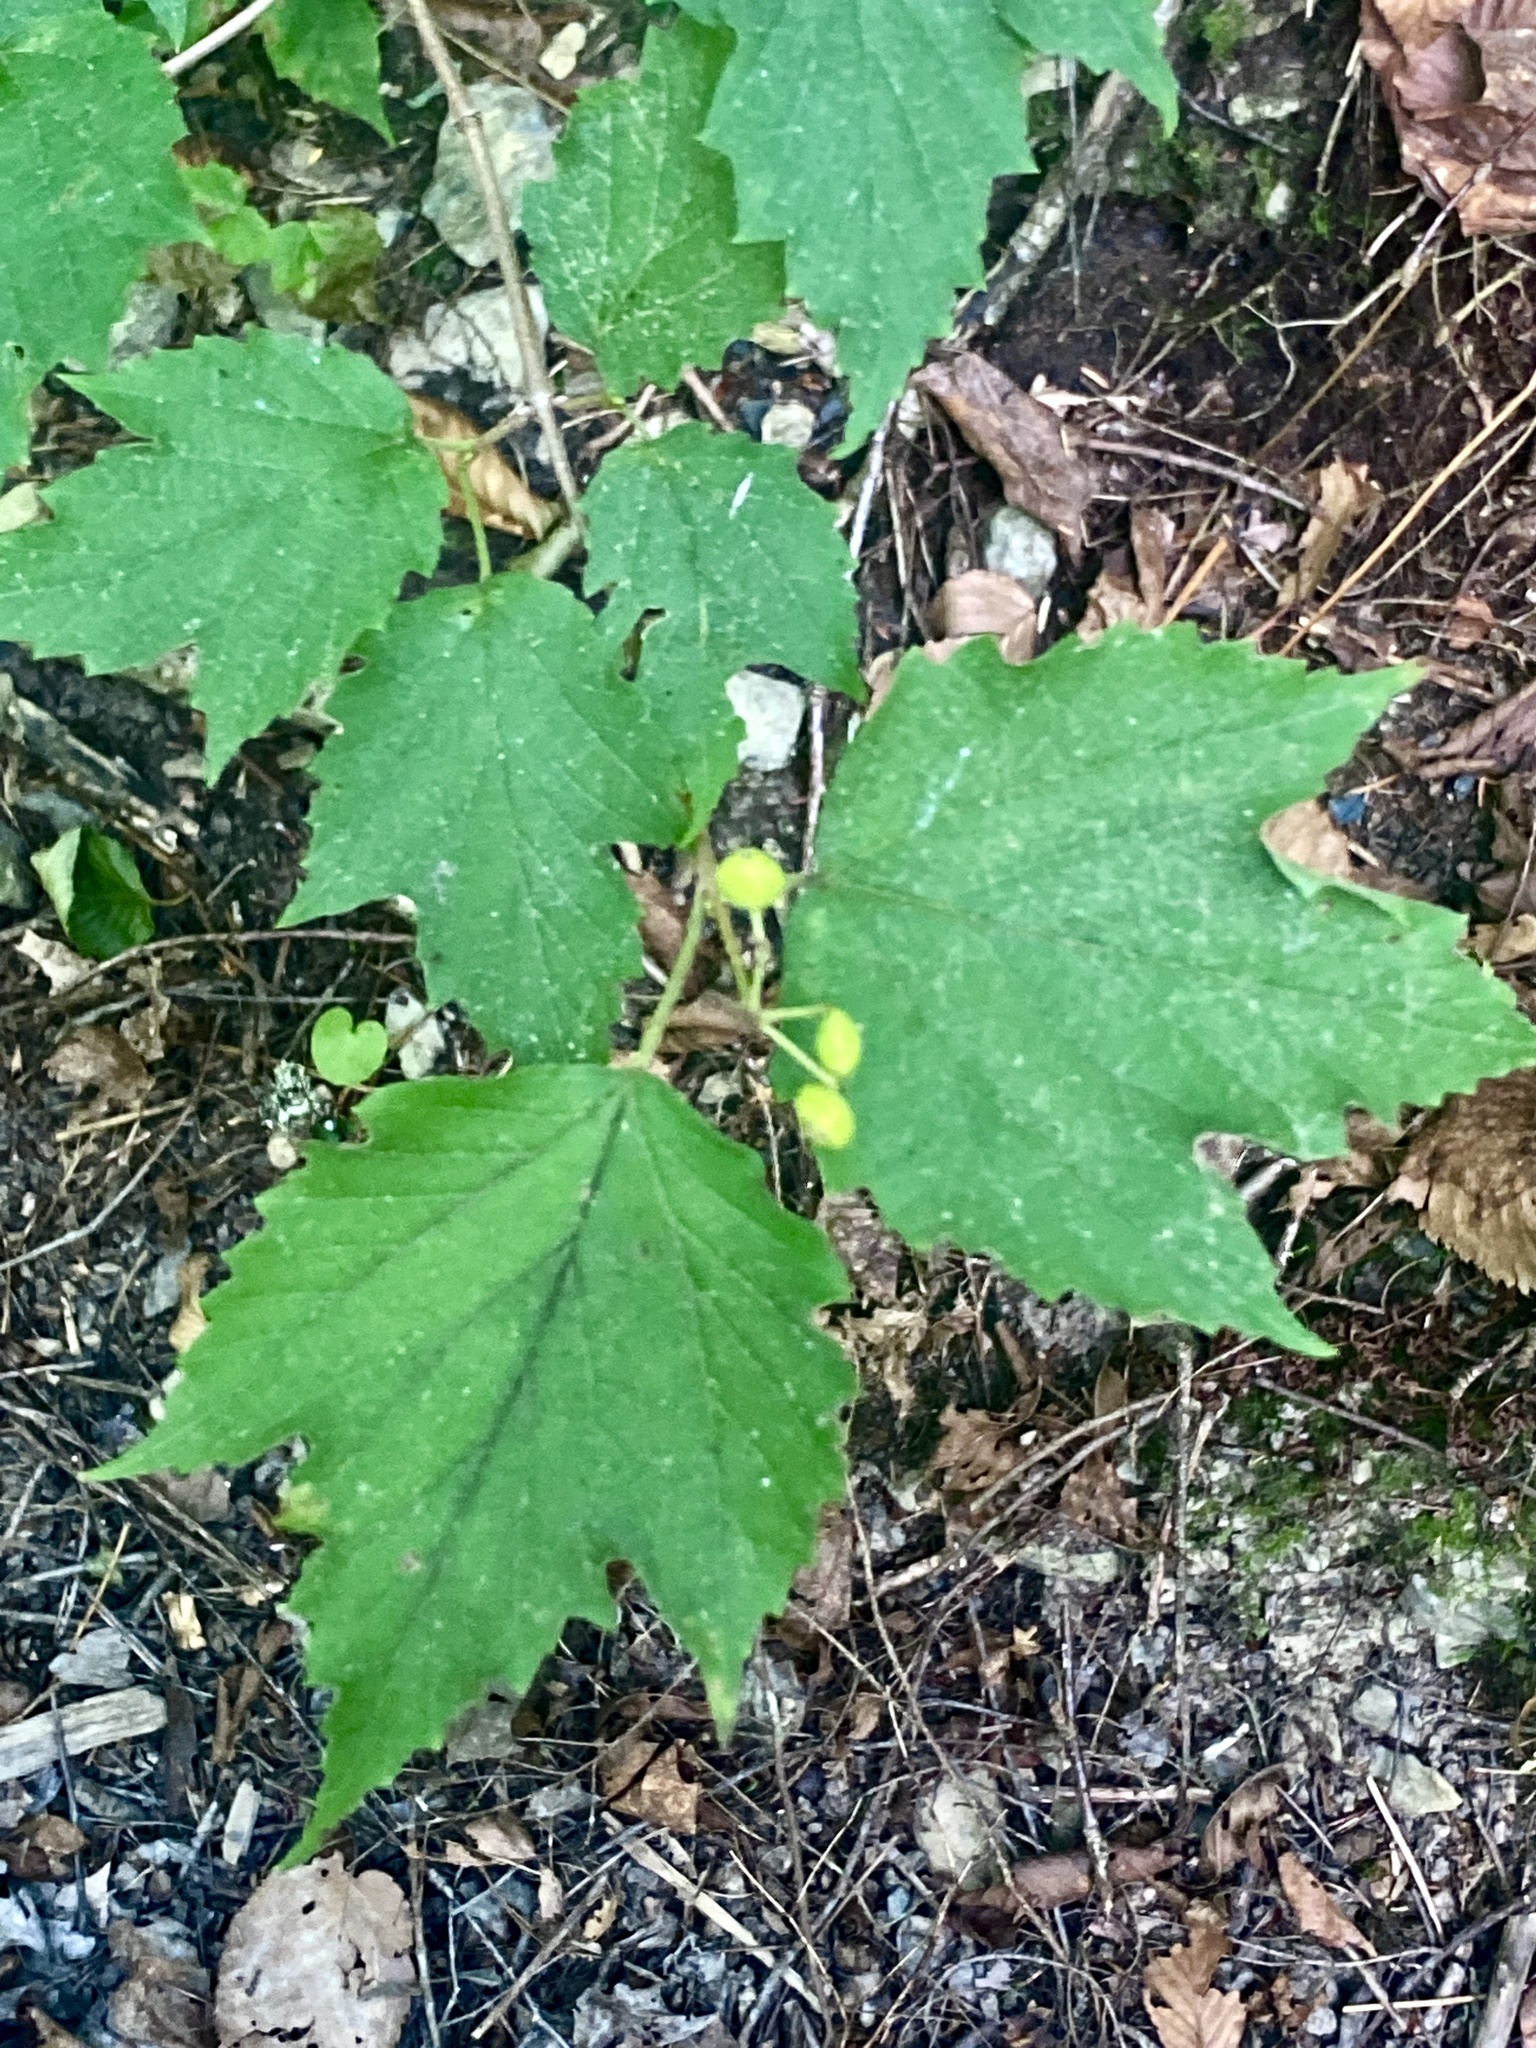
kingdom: Plantae
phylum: Tracheophyta
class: Magnoliopsida
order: Dipsacales
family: Viburnaceae
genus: Viburnum
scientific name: Viburnum acerifolium
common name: Dockmackie
